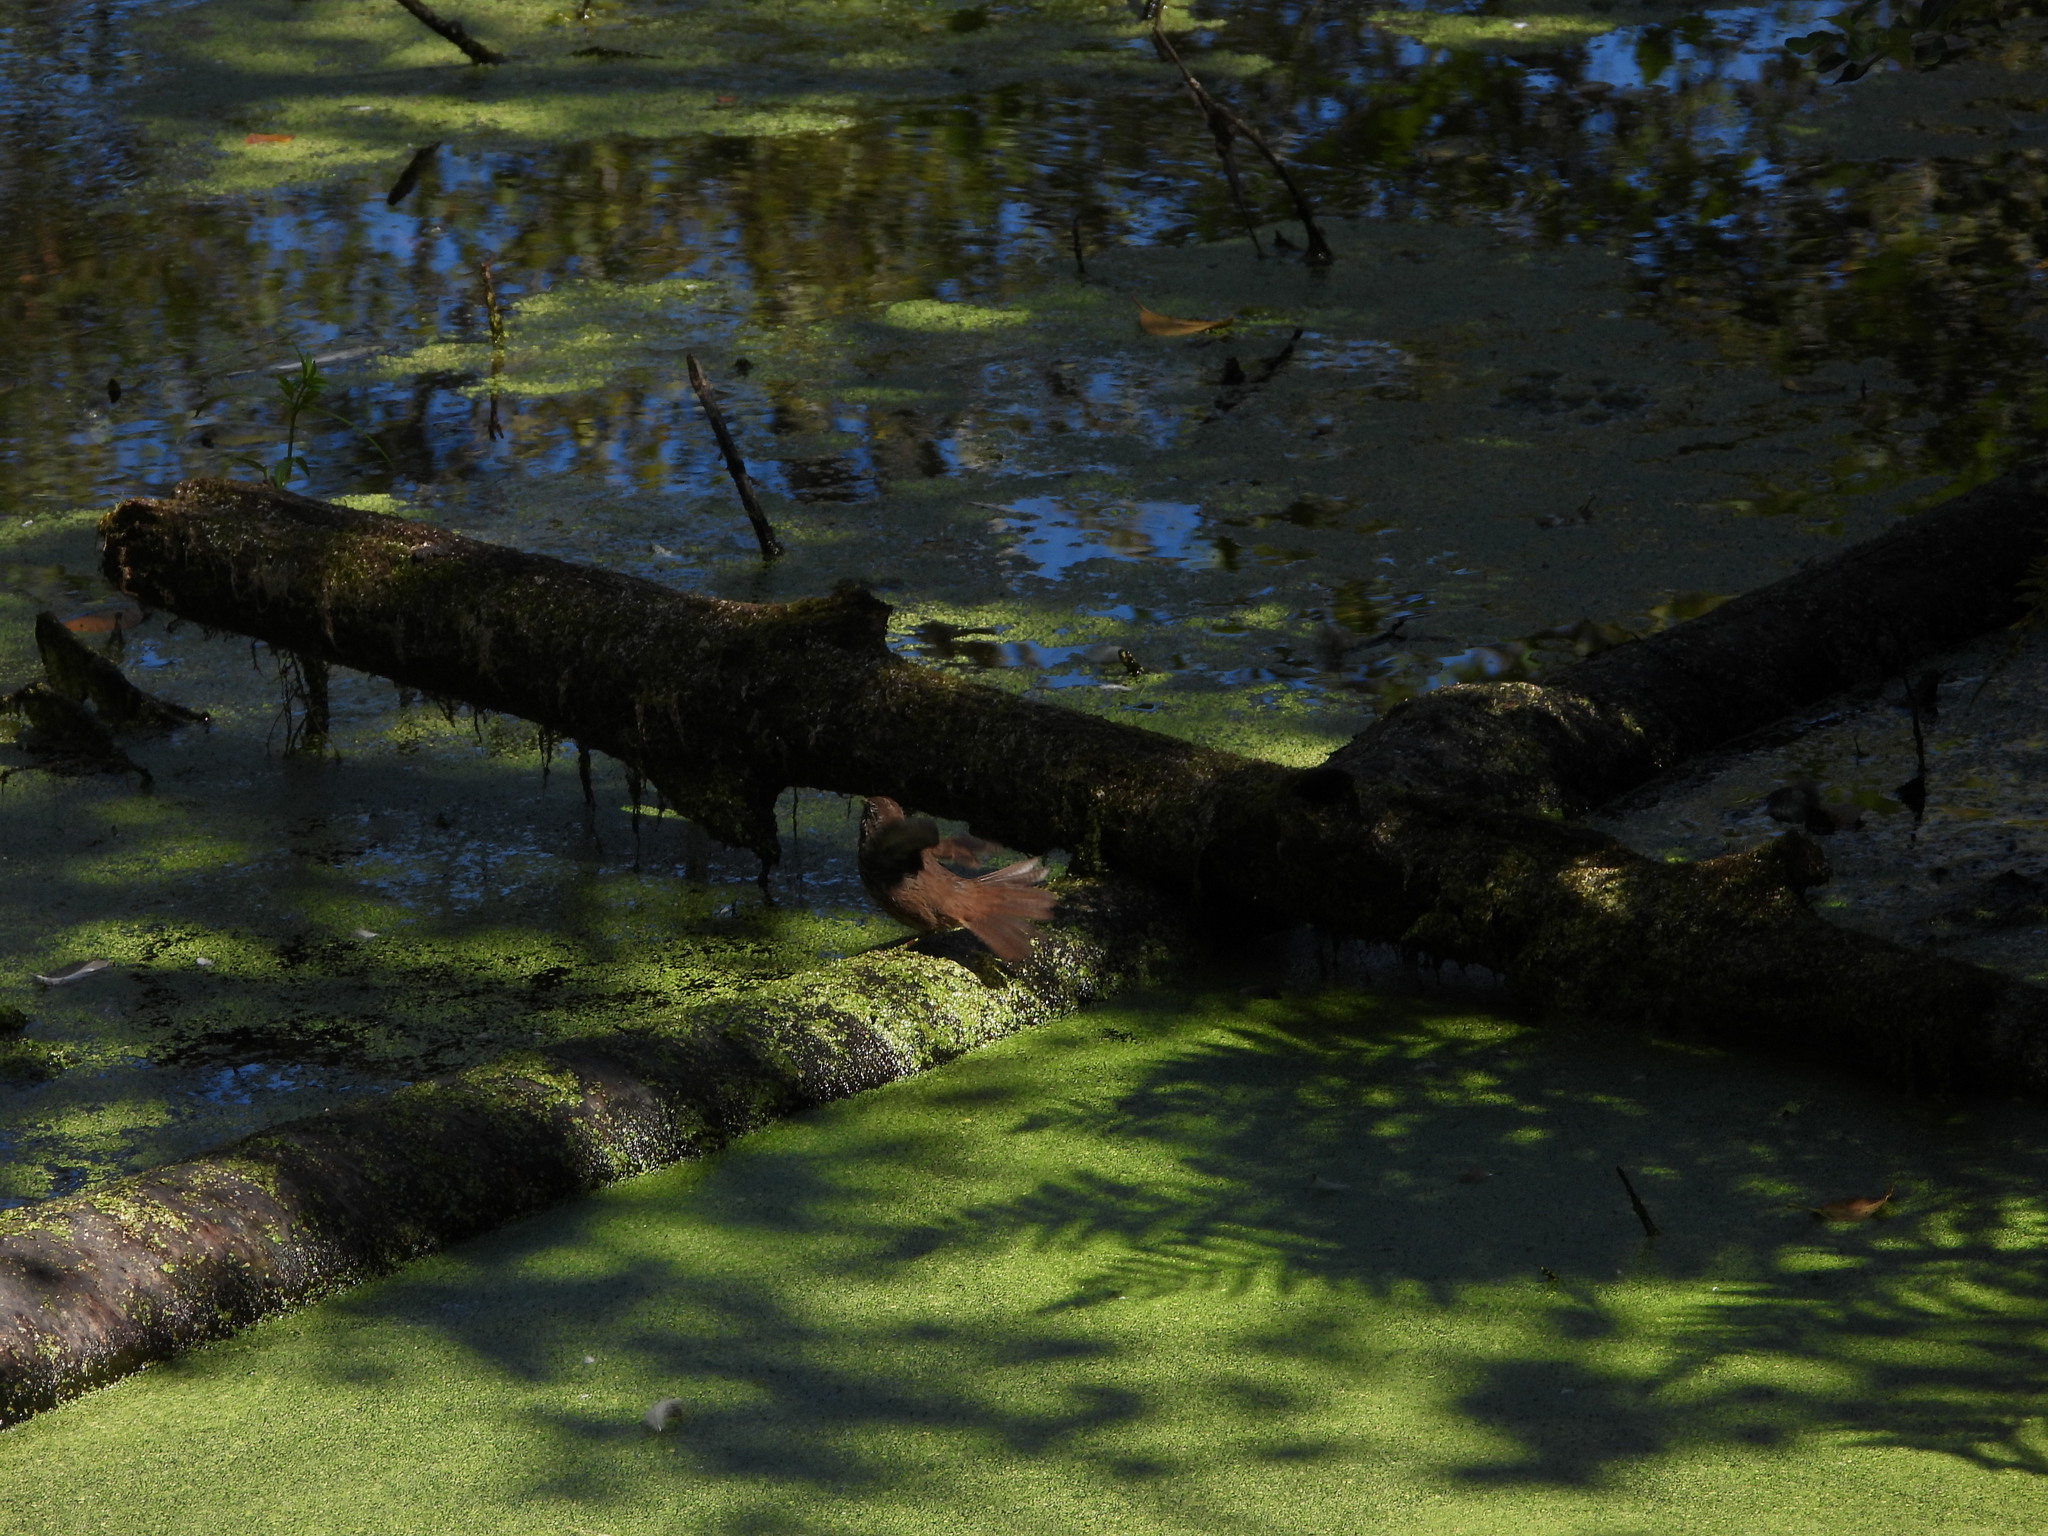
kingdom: Animalia
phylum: Chordata
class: Aves
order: Passeriformes
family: Passerellidae
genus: Melospiza
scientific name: Melospiza melodia
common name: Song sparrow
